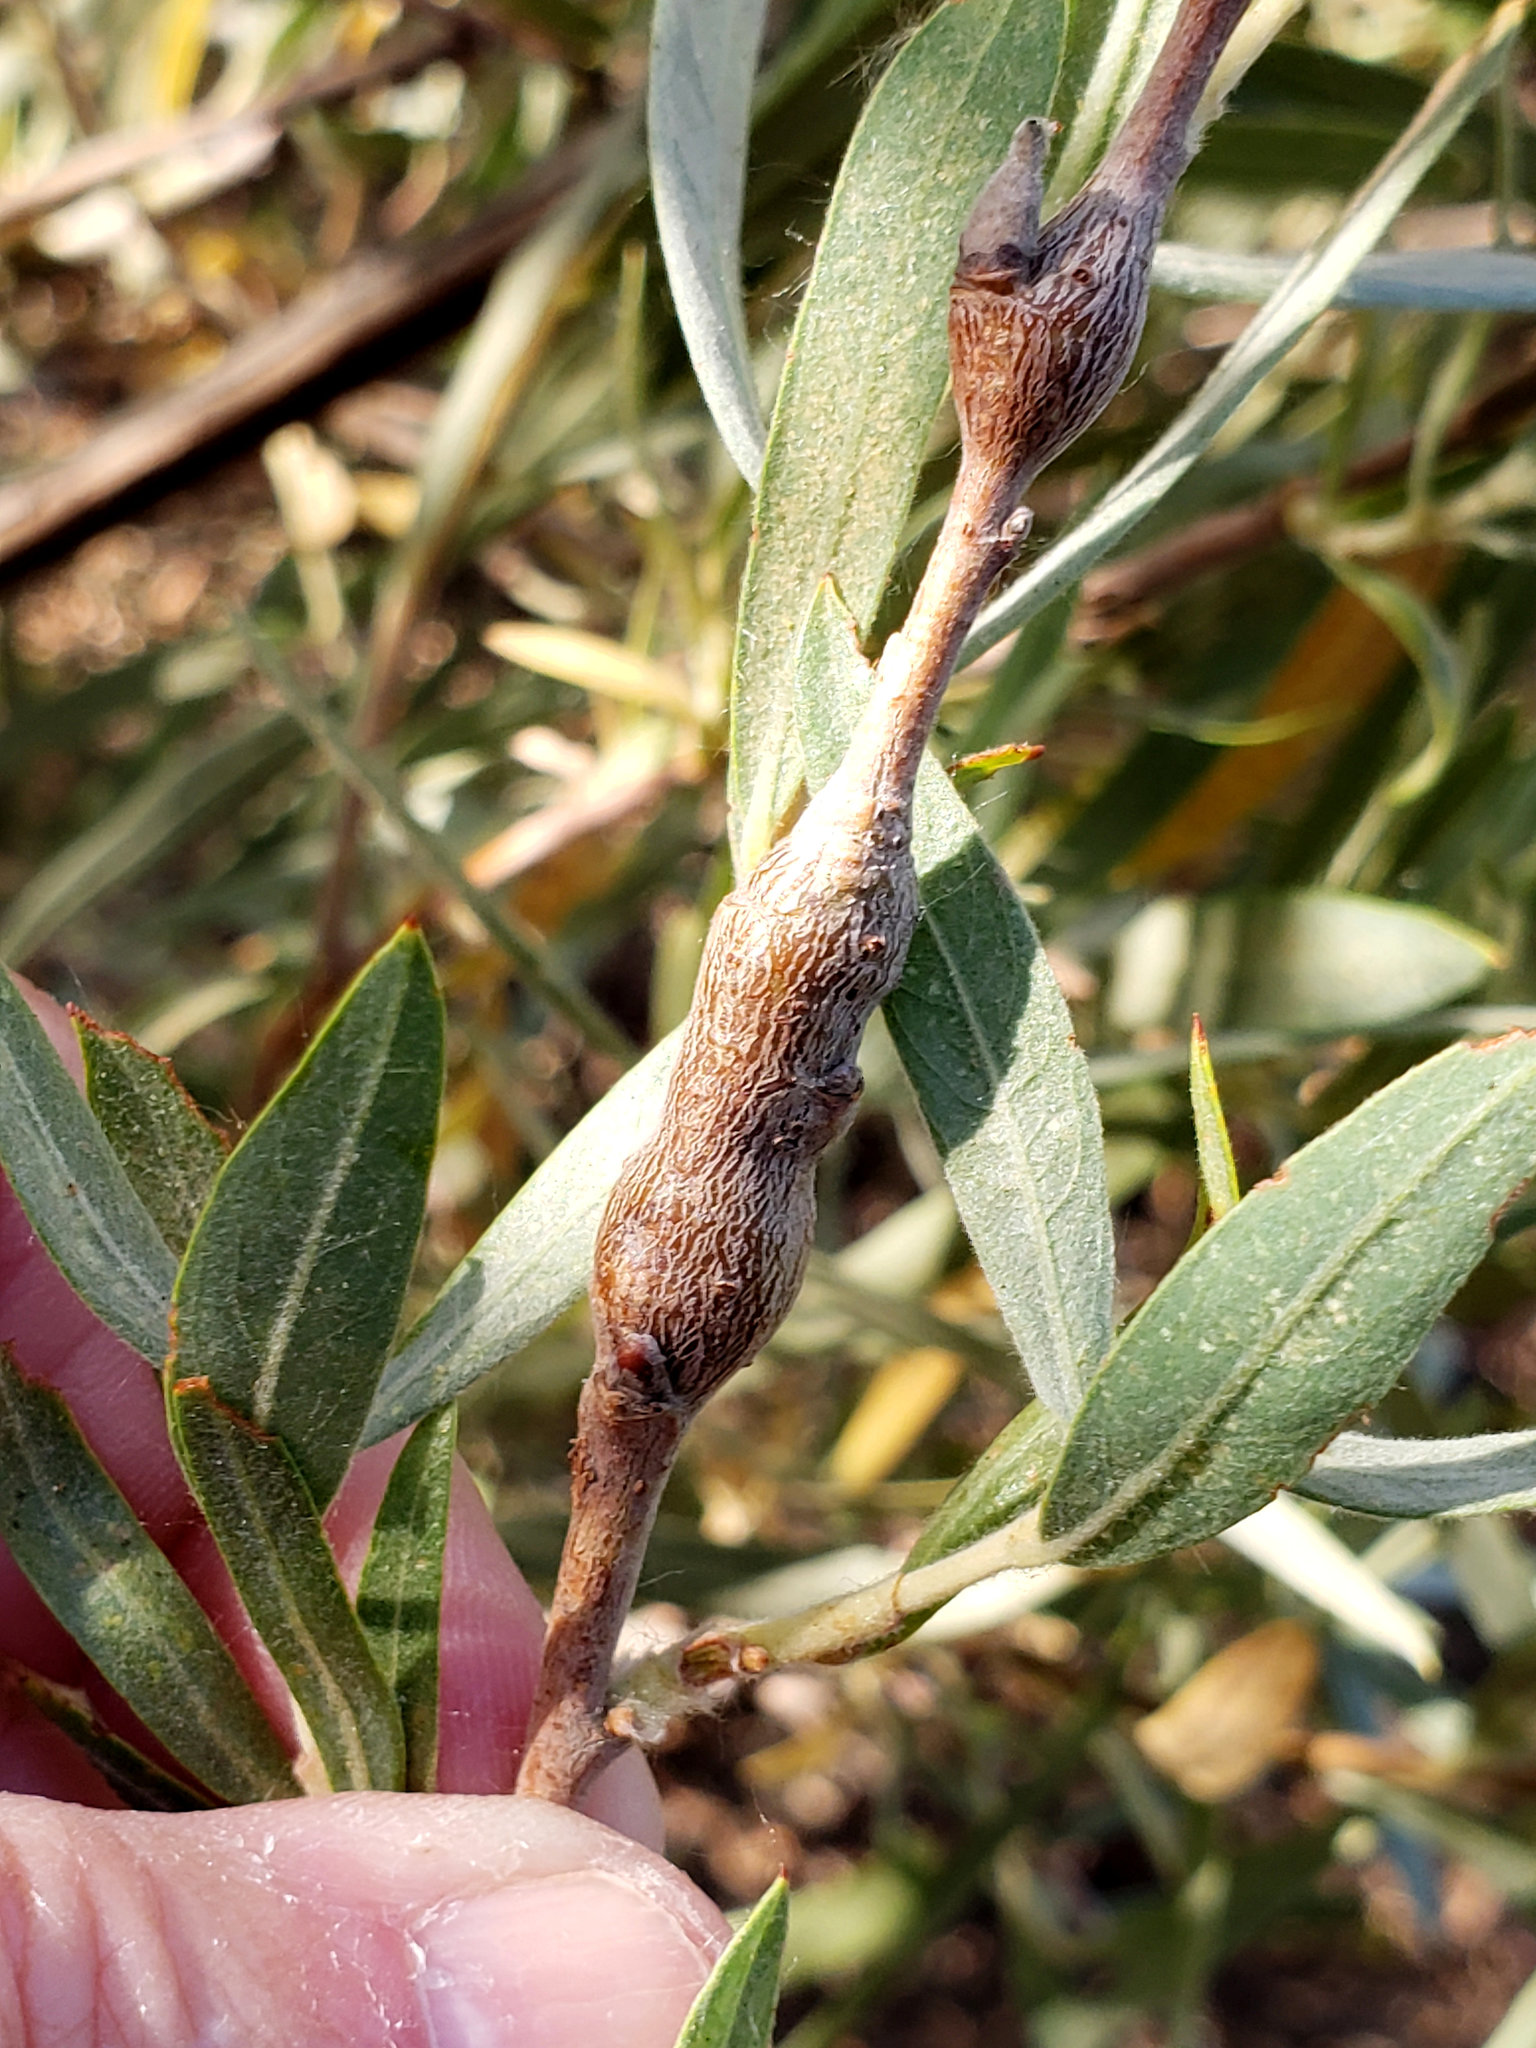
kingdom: Animalia
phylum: Arthropoda
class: Insecta
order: Hymenoptera
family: Tenthredinidae
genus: Euura
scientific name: Euura
